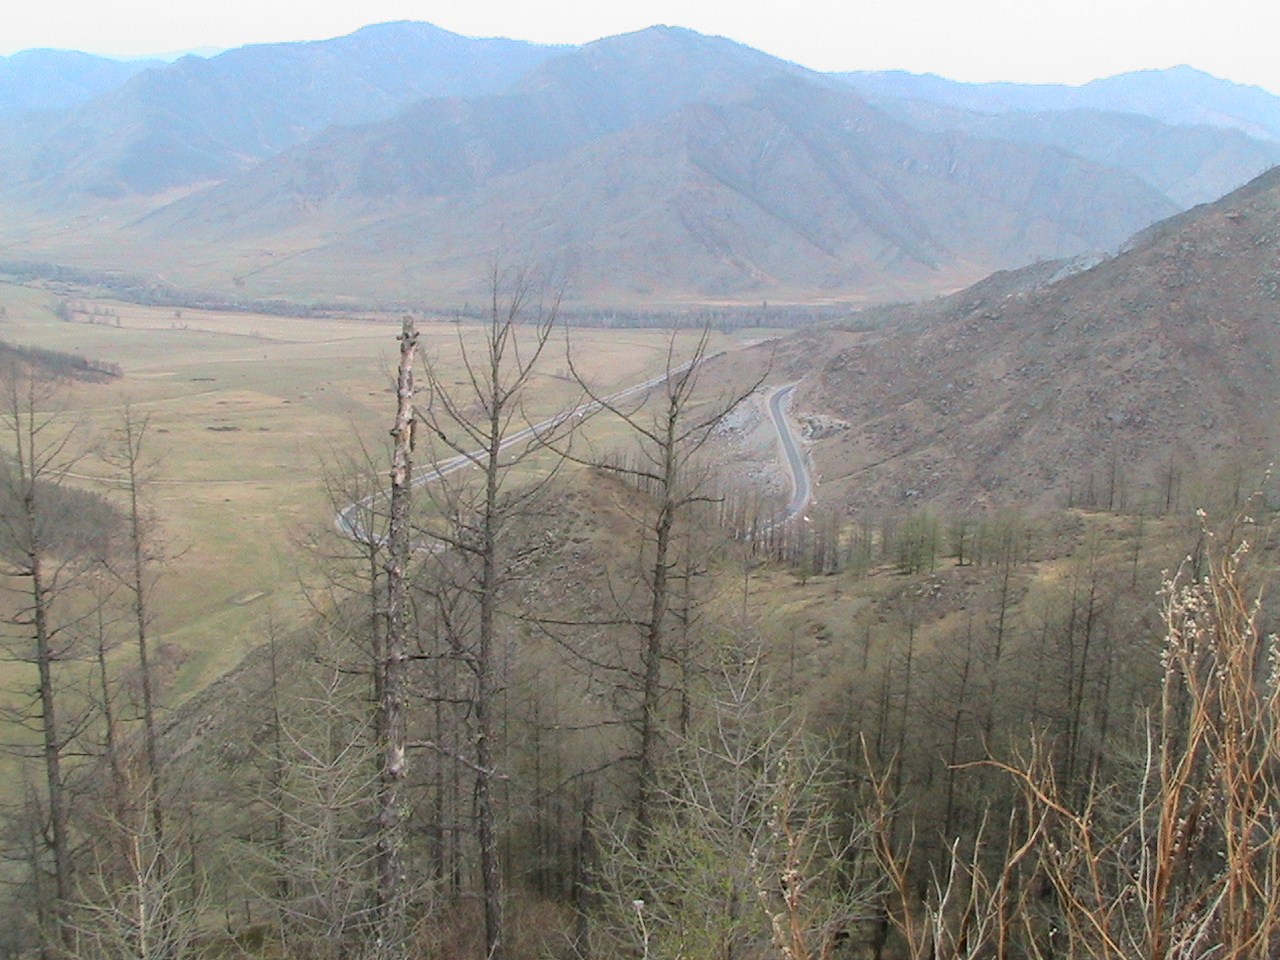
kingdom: Plantae
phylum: Tracheophyta
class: Pinopsida
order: Pinales
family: Pinaceae
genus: Larix
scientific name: Larix sibirica
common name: Siberian larch
